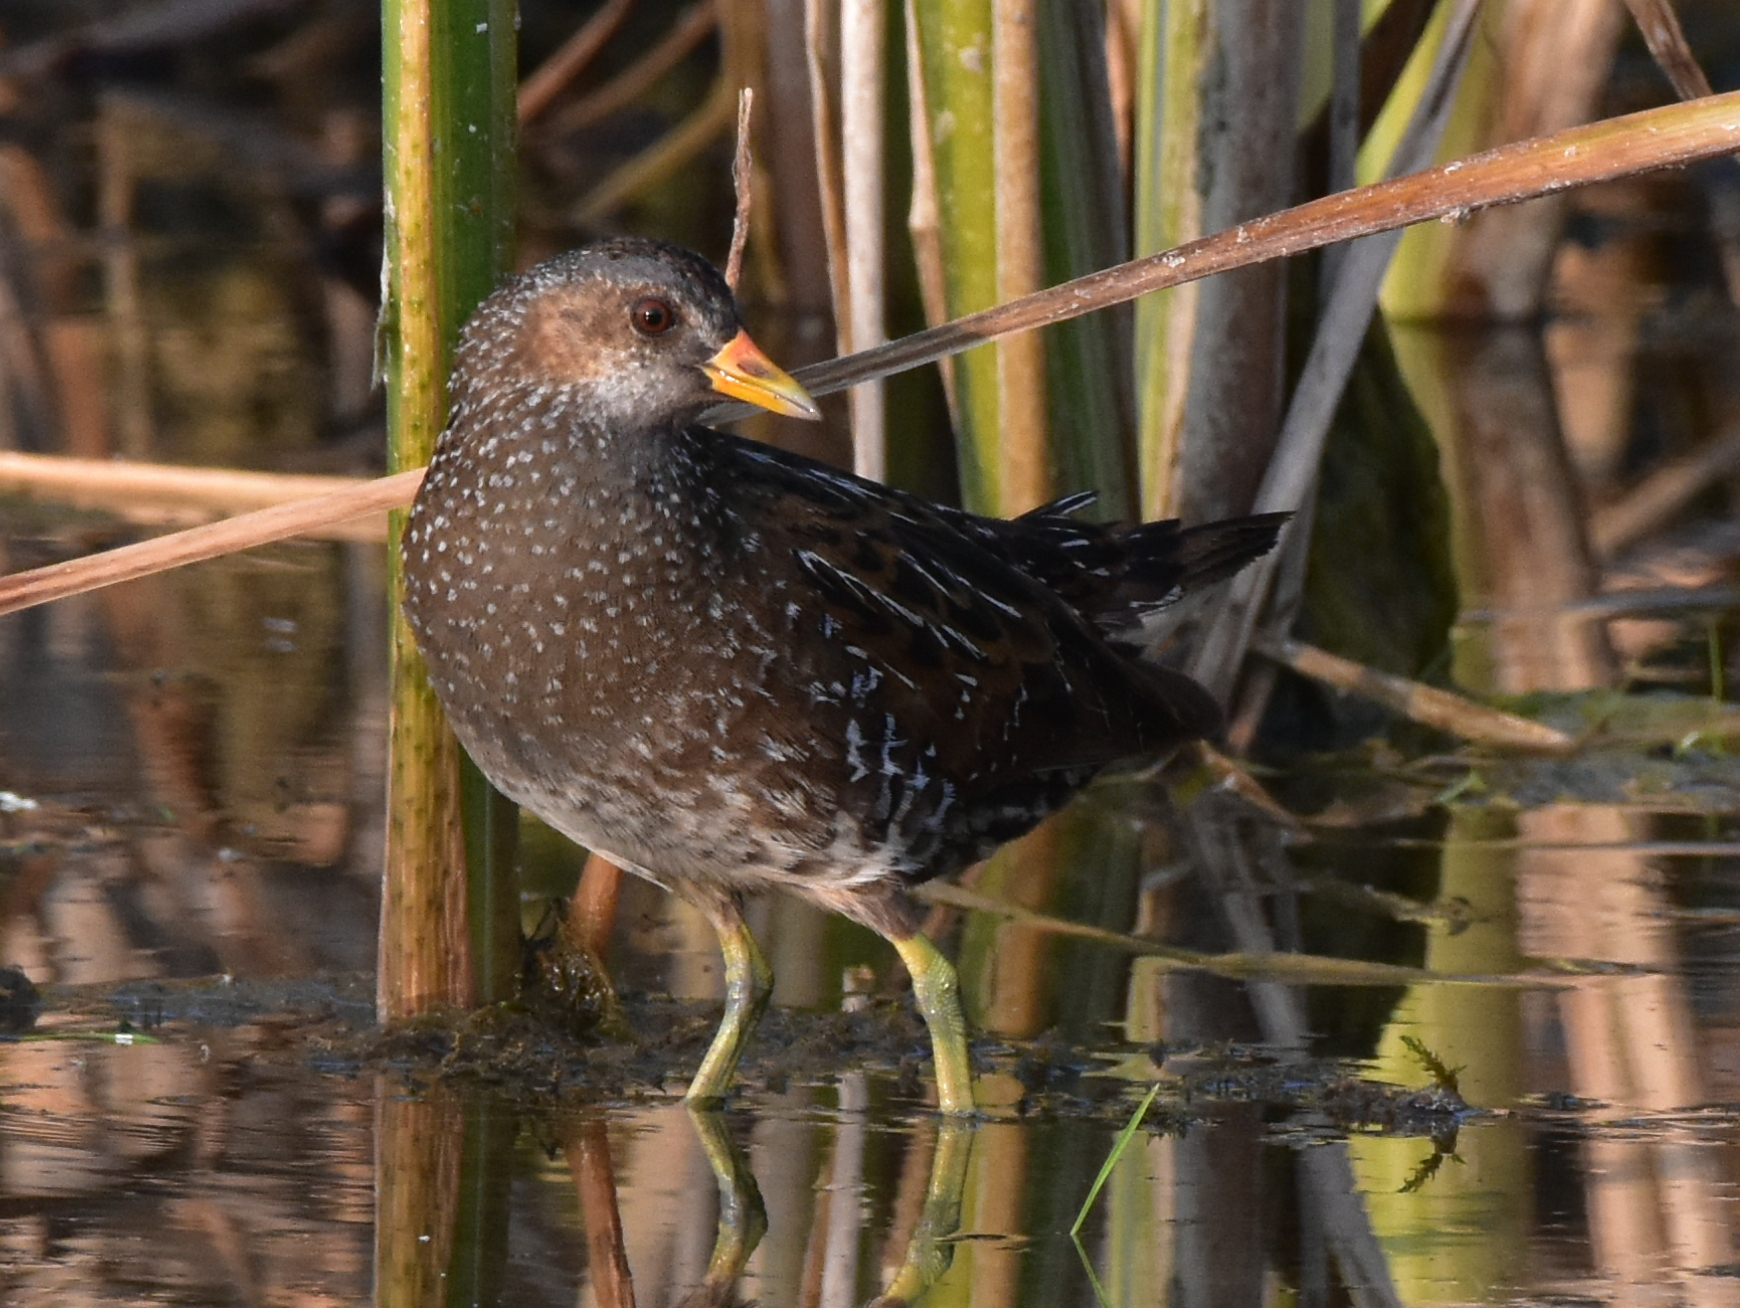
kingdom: Animalia
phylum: Chordata
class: Aves
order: Gruiformes
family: Rallidae
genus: Porzana
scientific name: Porzana porzana
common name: Spotted crake
